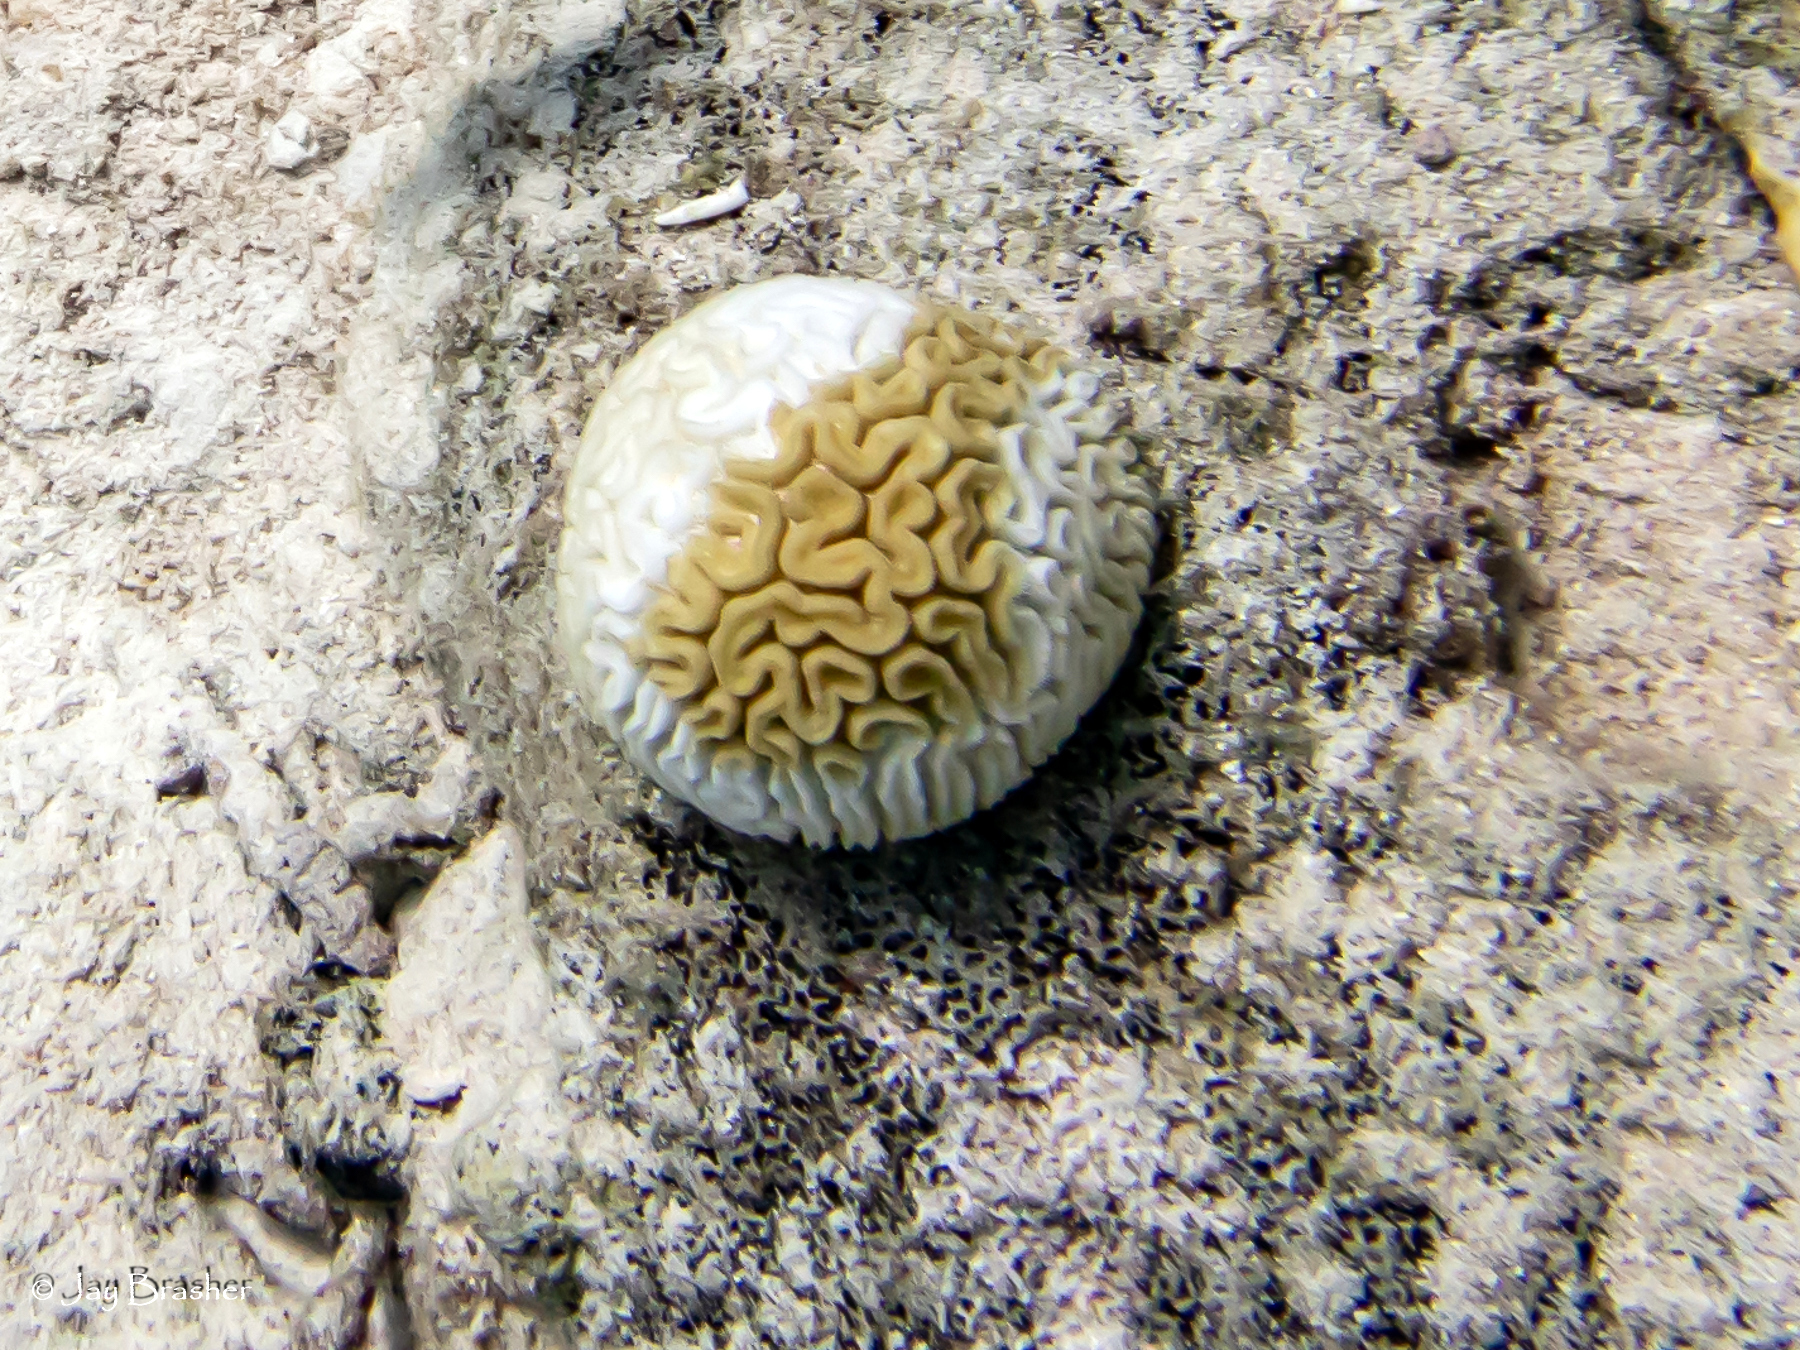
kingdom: Animalia
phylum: Cnidaria
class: Anthozoa
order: Scleractinia
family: Faviidae
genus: Diploria
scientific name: Diploria labyrinthiformis
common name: Grooved brain coral
